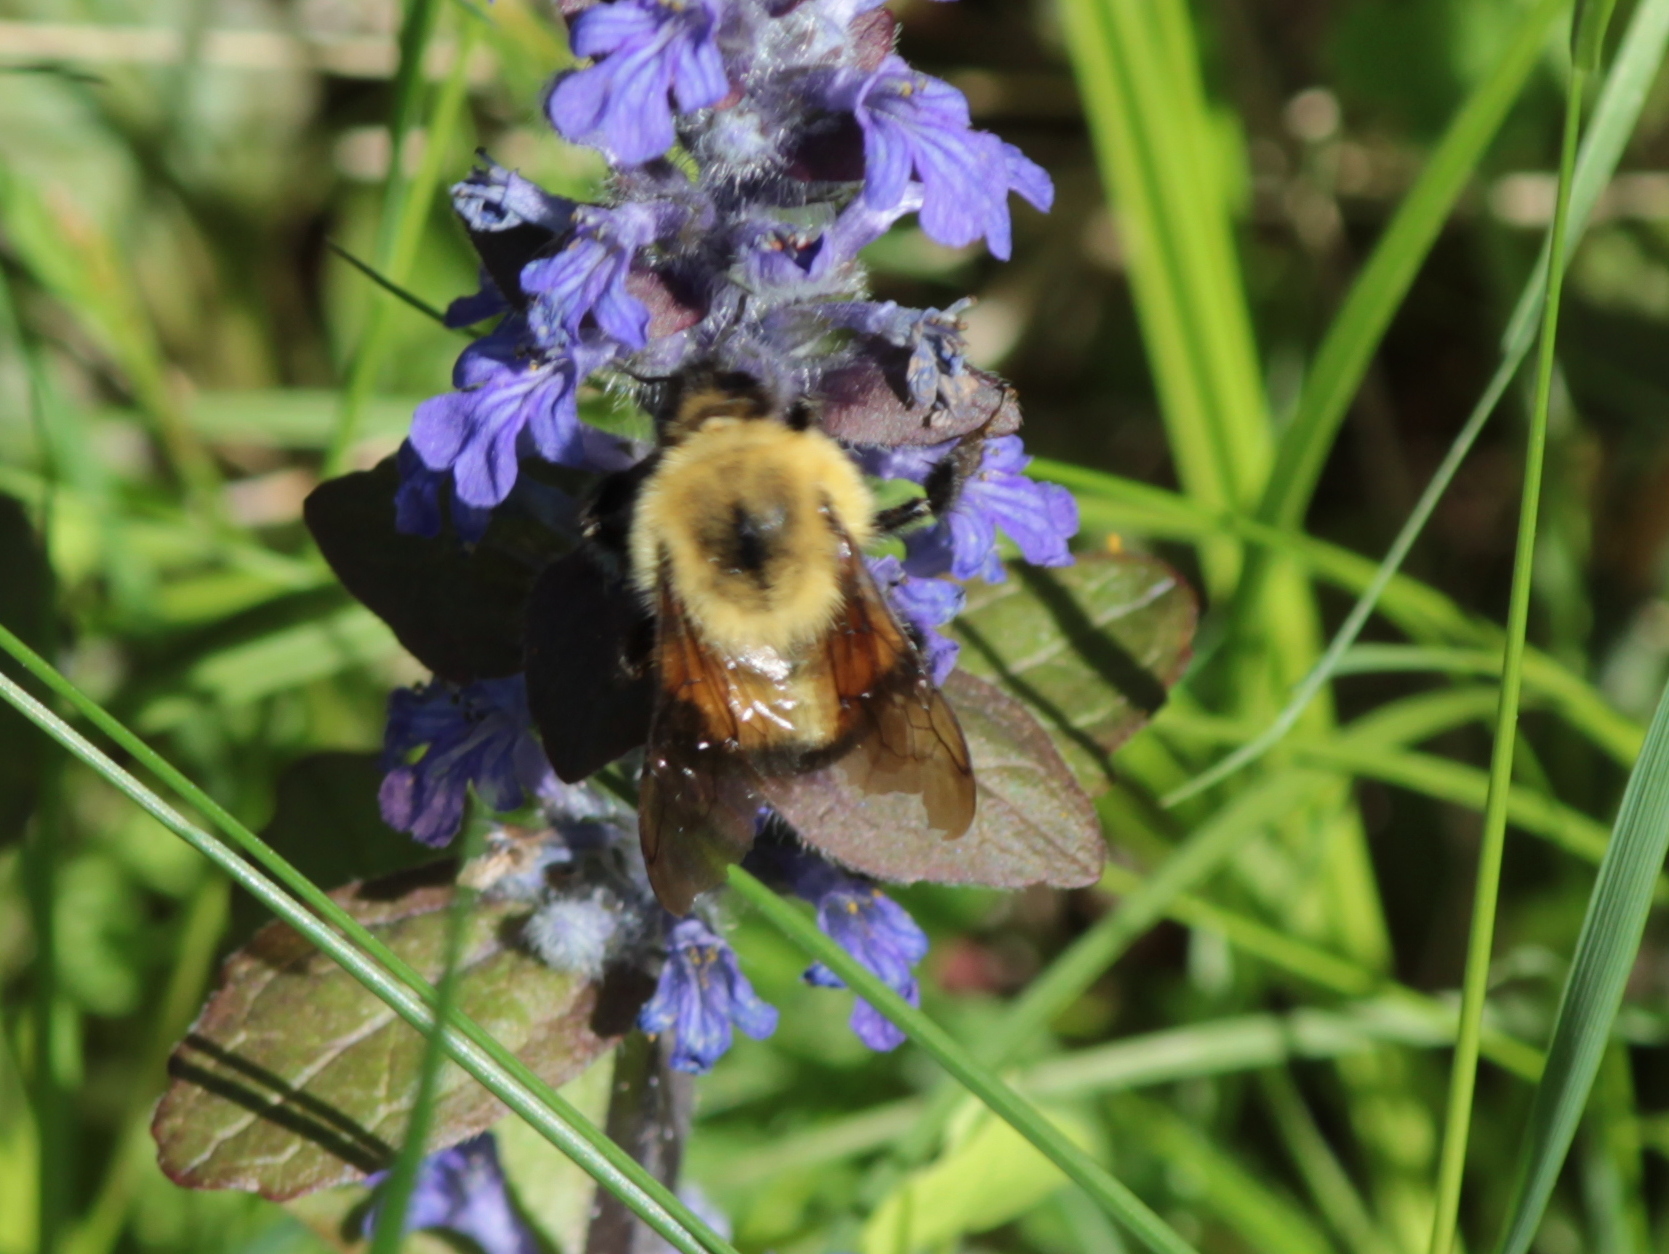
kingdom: Animalia
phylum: Arthropoda
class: Insecta
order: Hymenoptera
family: Apidae
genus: Bombus
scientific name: Bombus bimaculatus
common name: Two-spotted bumble bee
